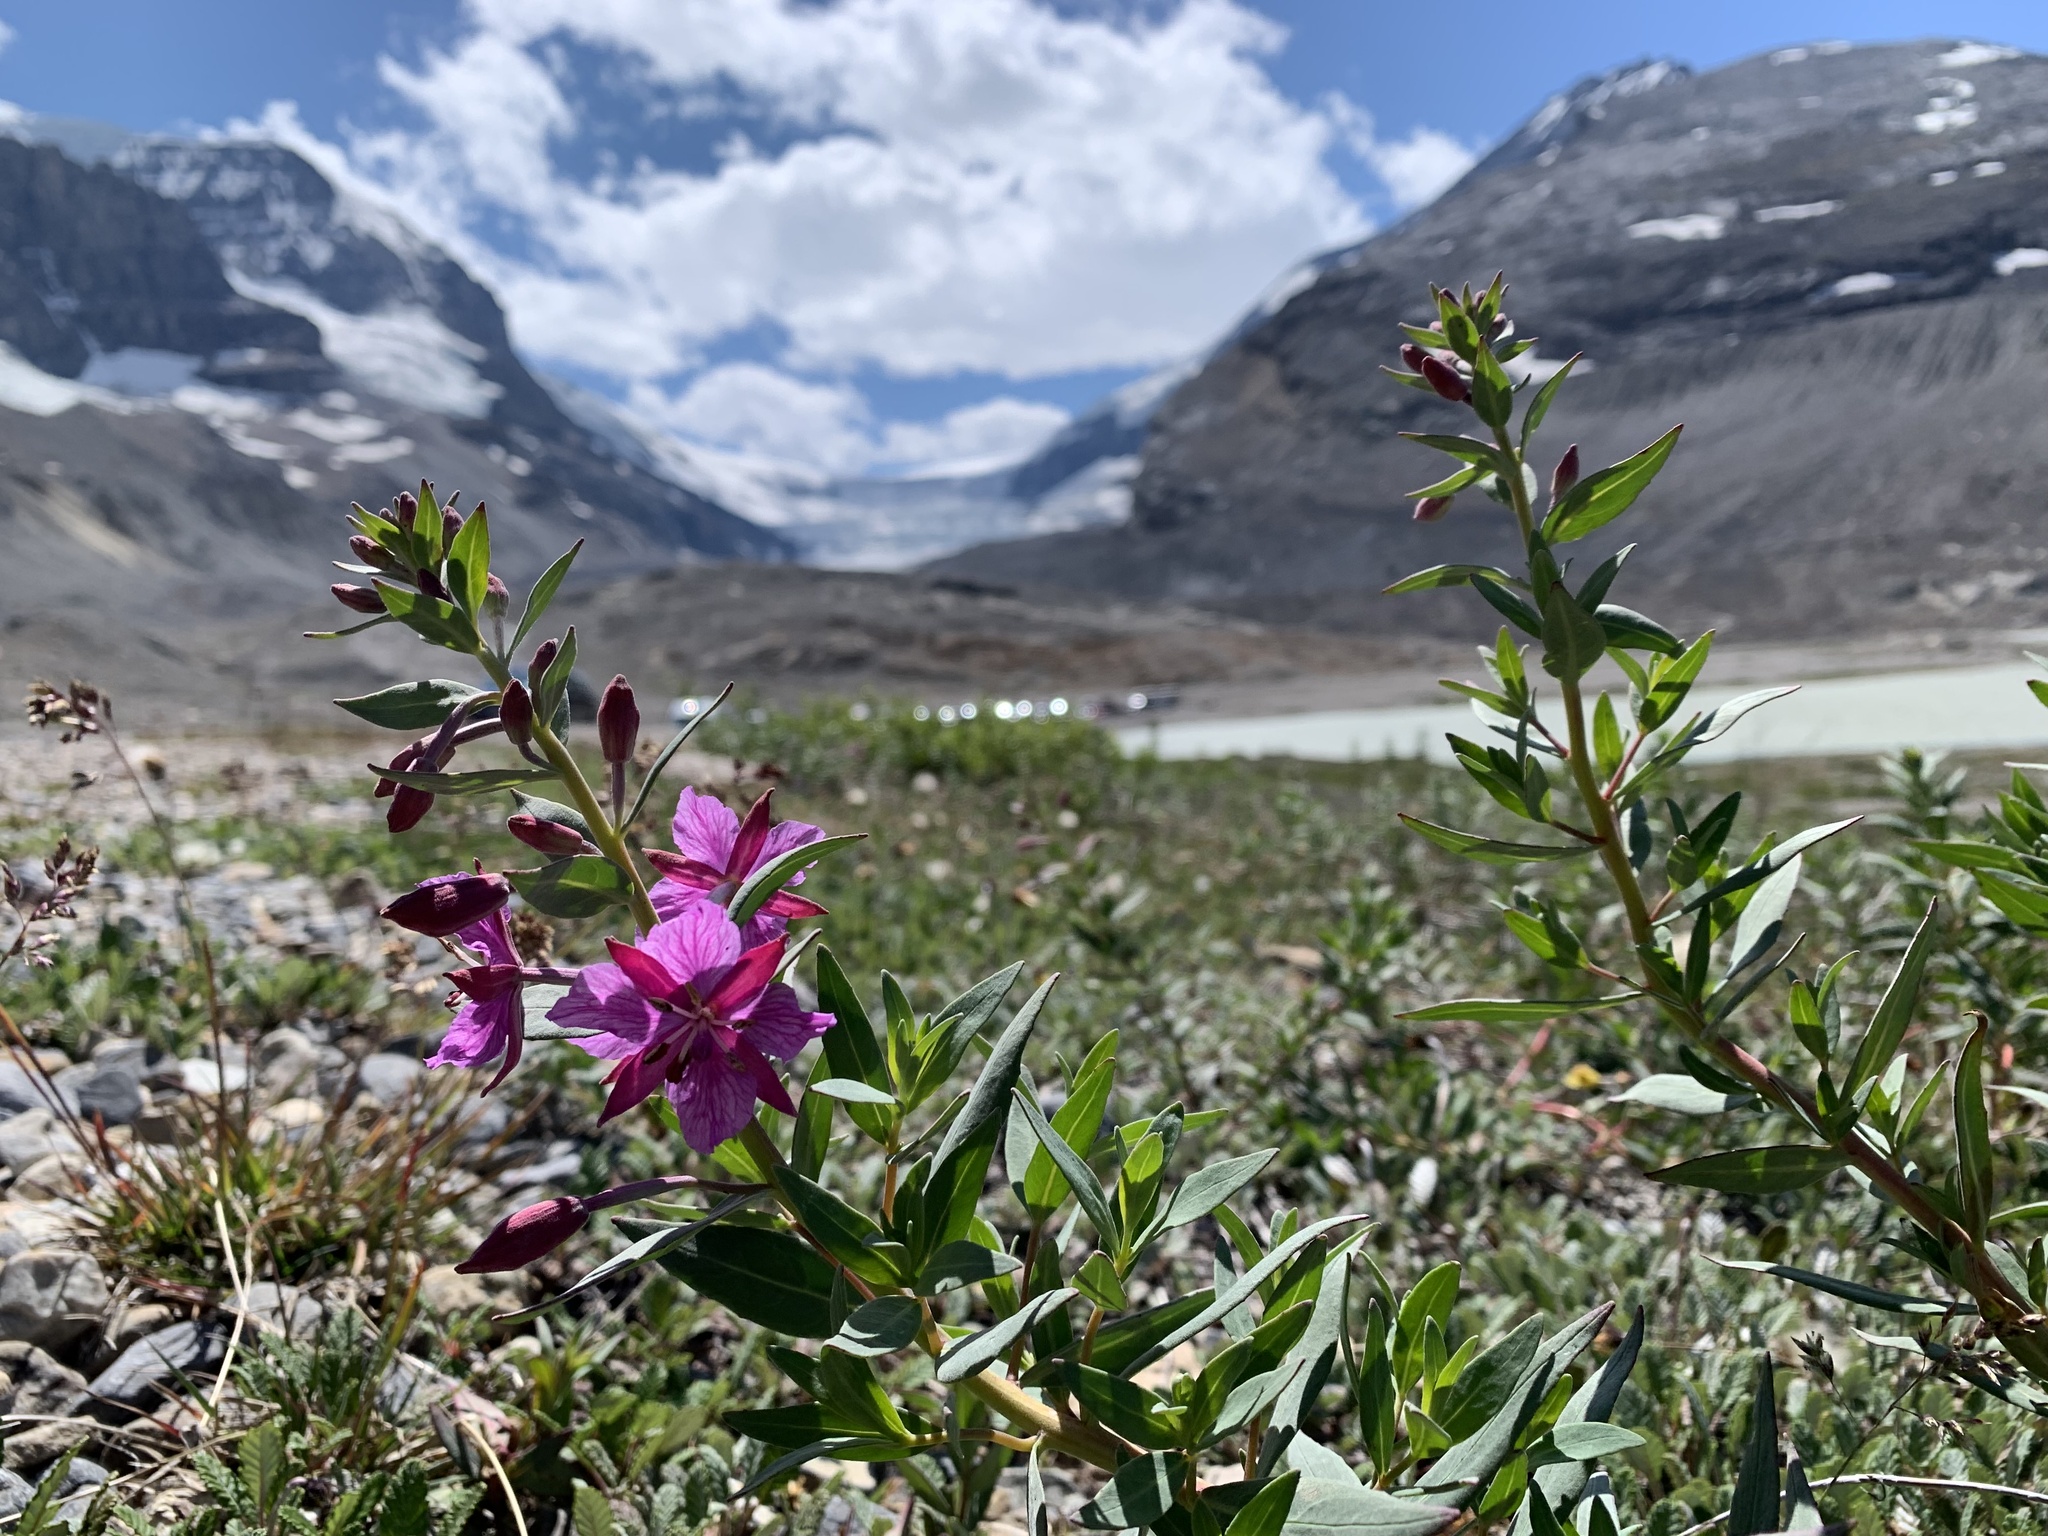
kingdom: Plantae
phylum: Tracheophyta
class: Magnoliopsida
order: Myrtales
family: Onagraceae
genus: Chamaenerion
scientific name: Chamaenerion latifolium
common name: Dwarf fireweed
